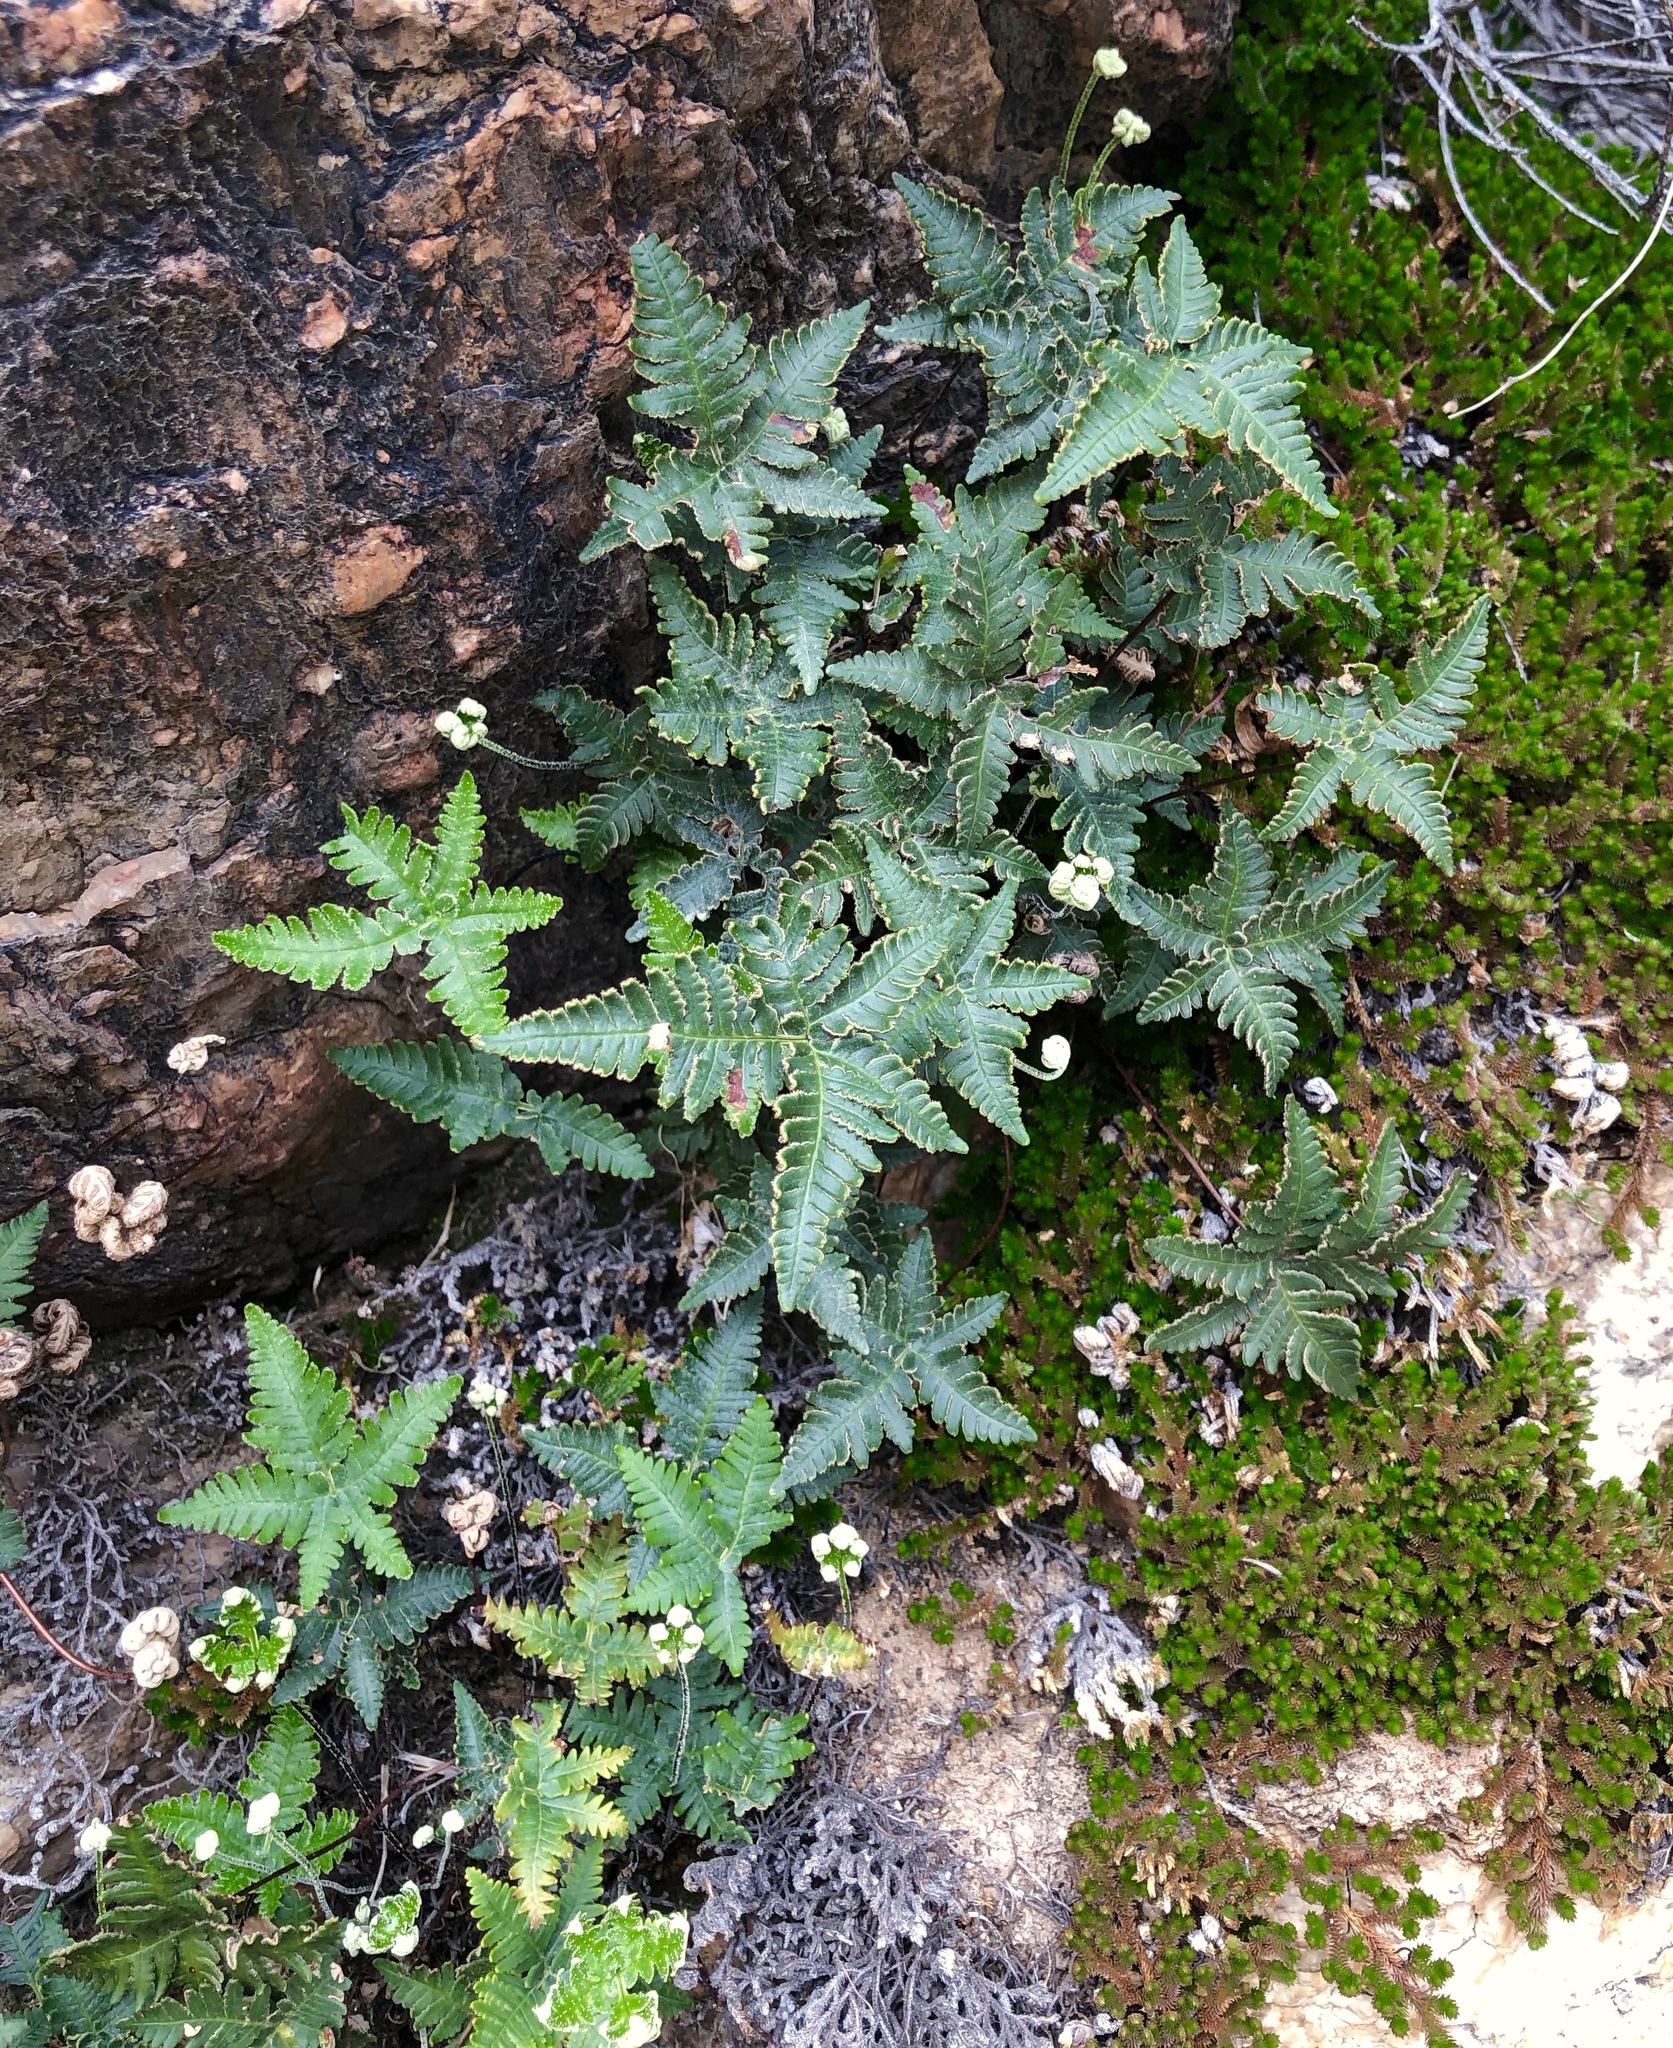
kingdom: Plantae
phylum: Tracheophyta
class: Polypodiopsida
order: Polypodiales
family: Pteridaceae
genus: Notholaena
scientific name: Notholaena standleyi
